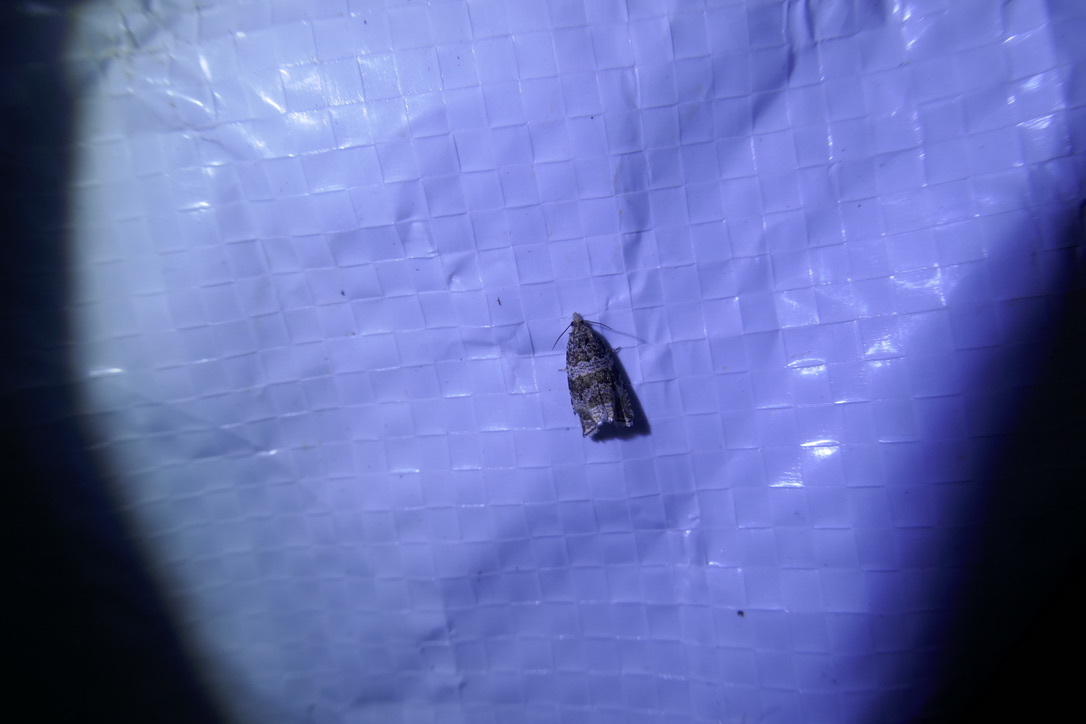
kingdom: Animalia
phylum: Arthropoda
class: Insecta
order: Lepidoptera
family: Tortricidae
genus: Syricoris
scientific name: Syricoris lacunana
